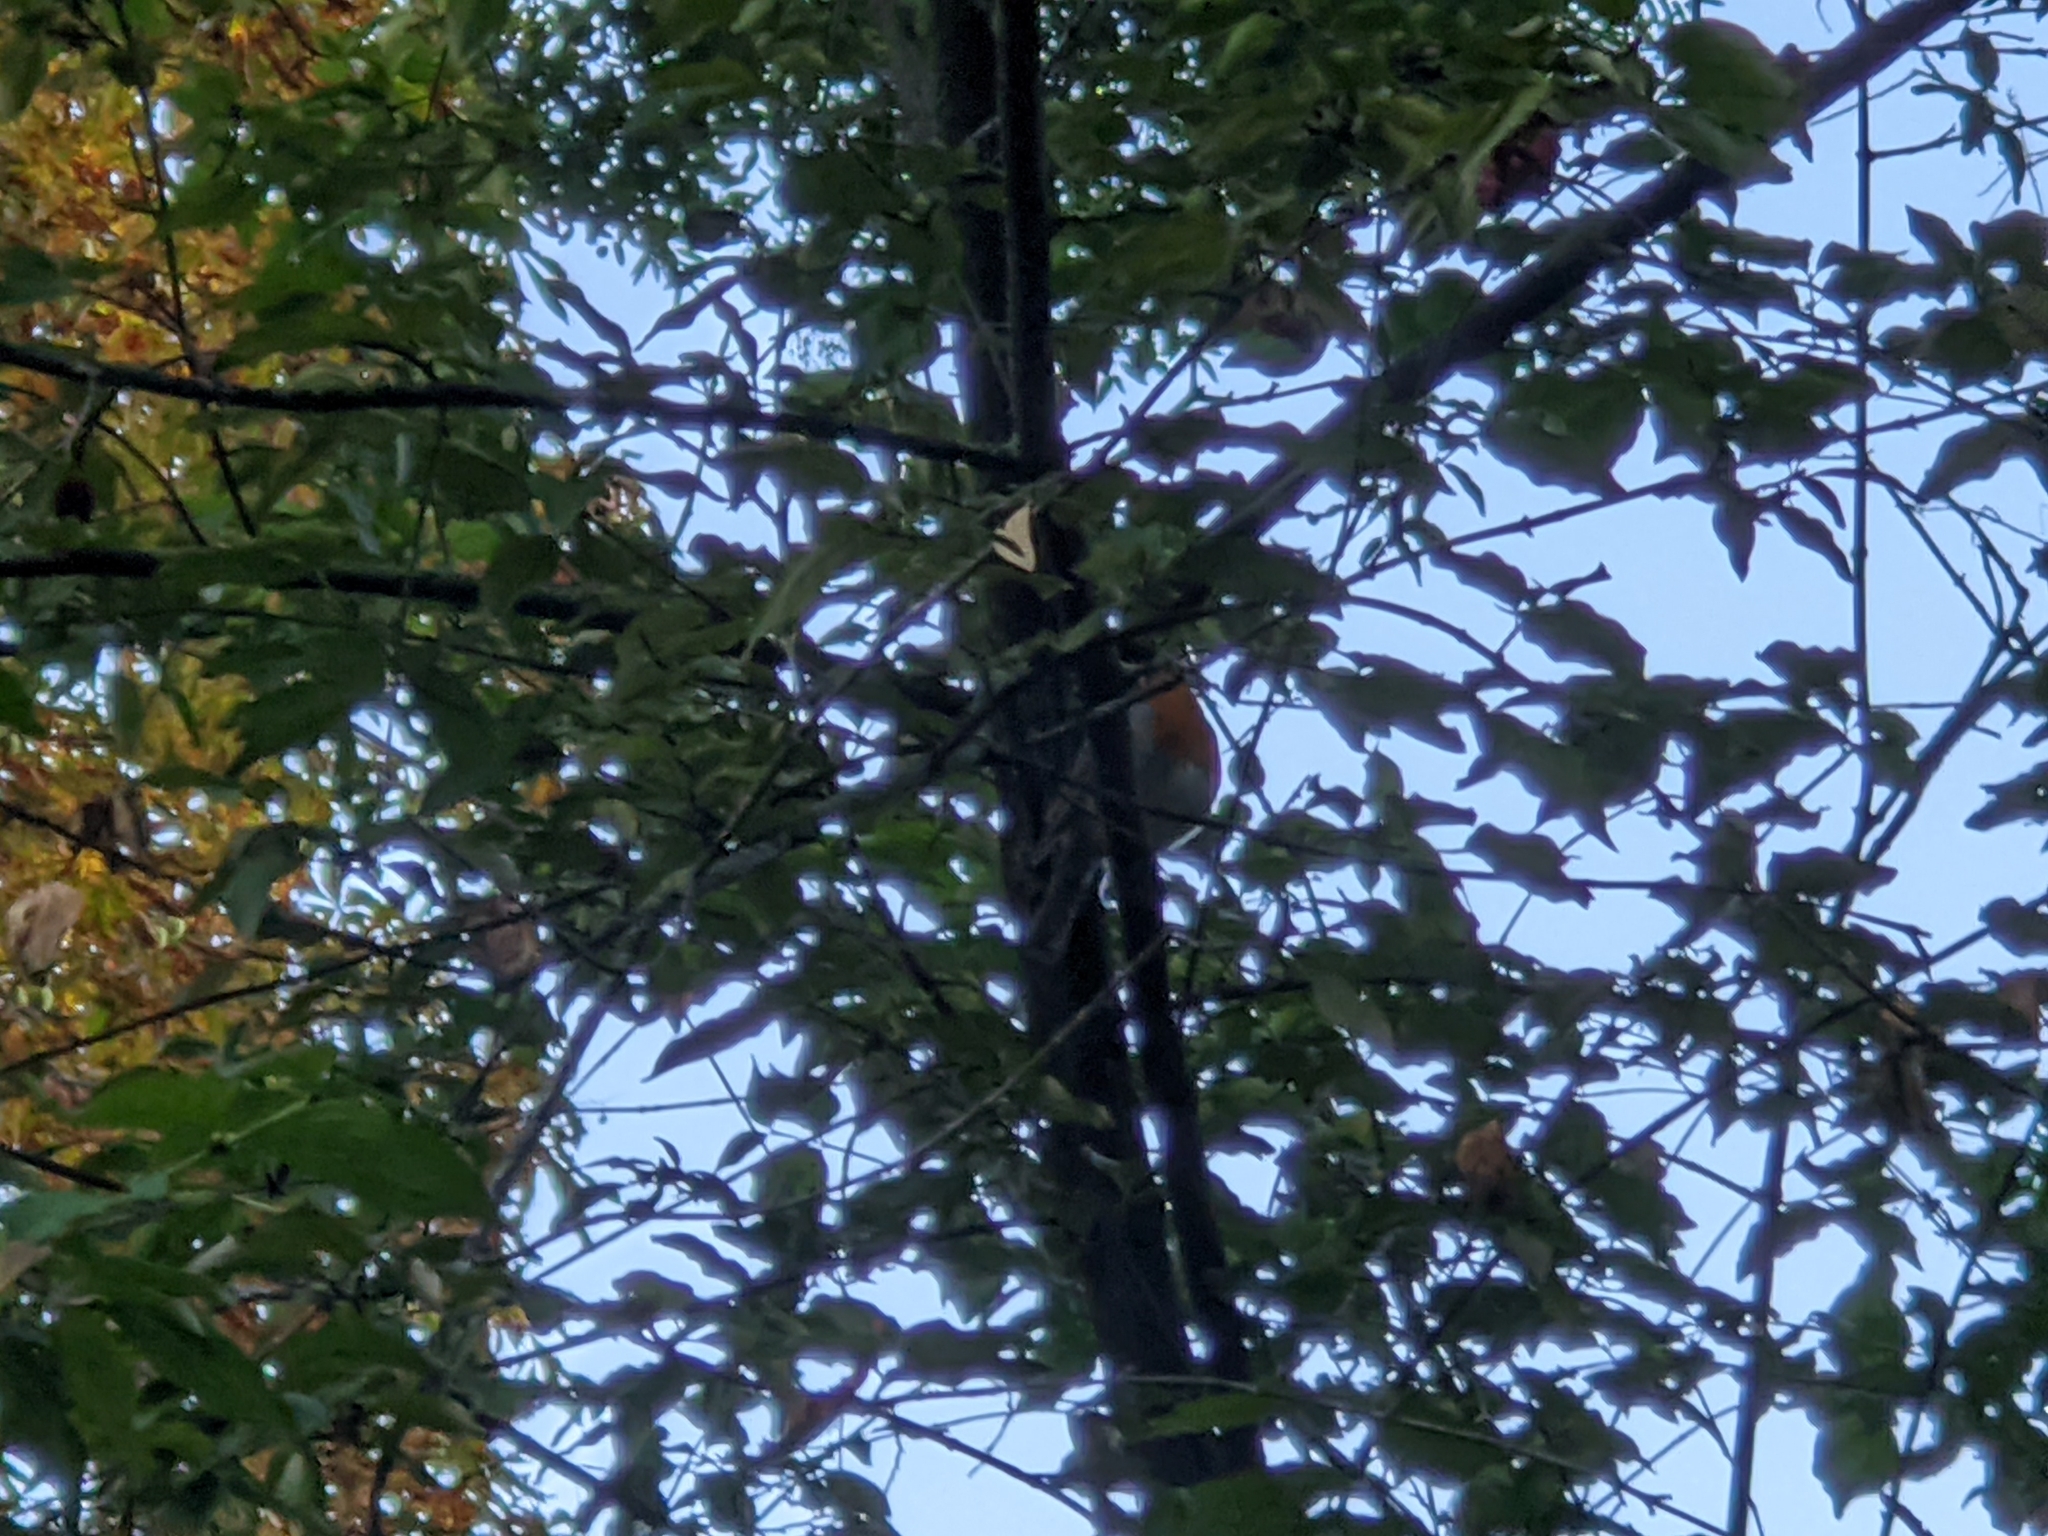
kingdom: Animalia
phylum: Chordata
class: Aves
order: Passeriformes
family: Muscicapidae
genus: Erithacus
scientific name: Erithacus rubecula
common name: European robin
